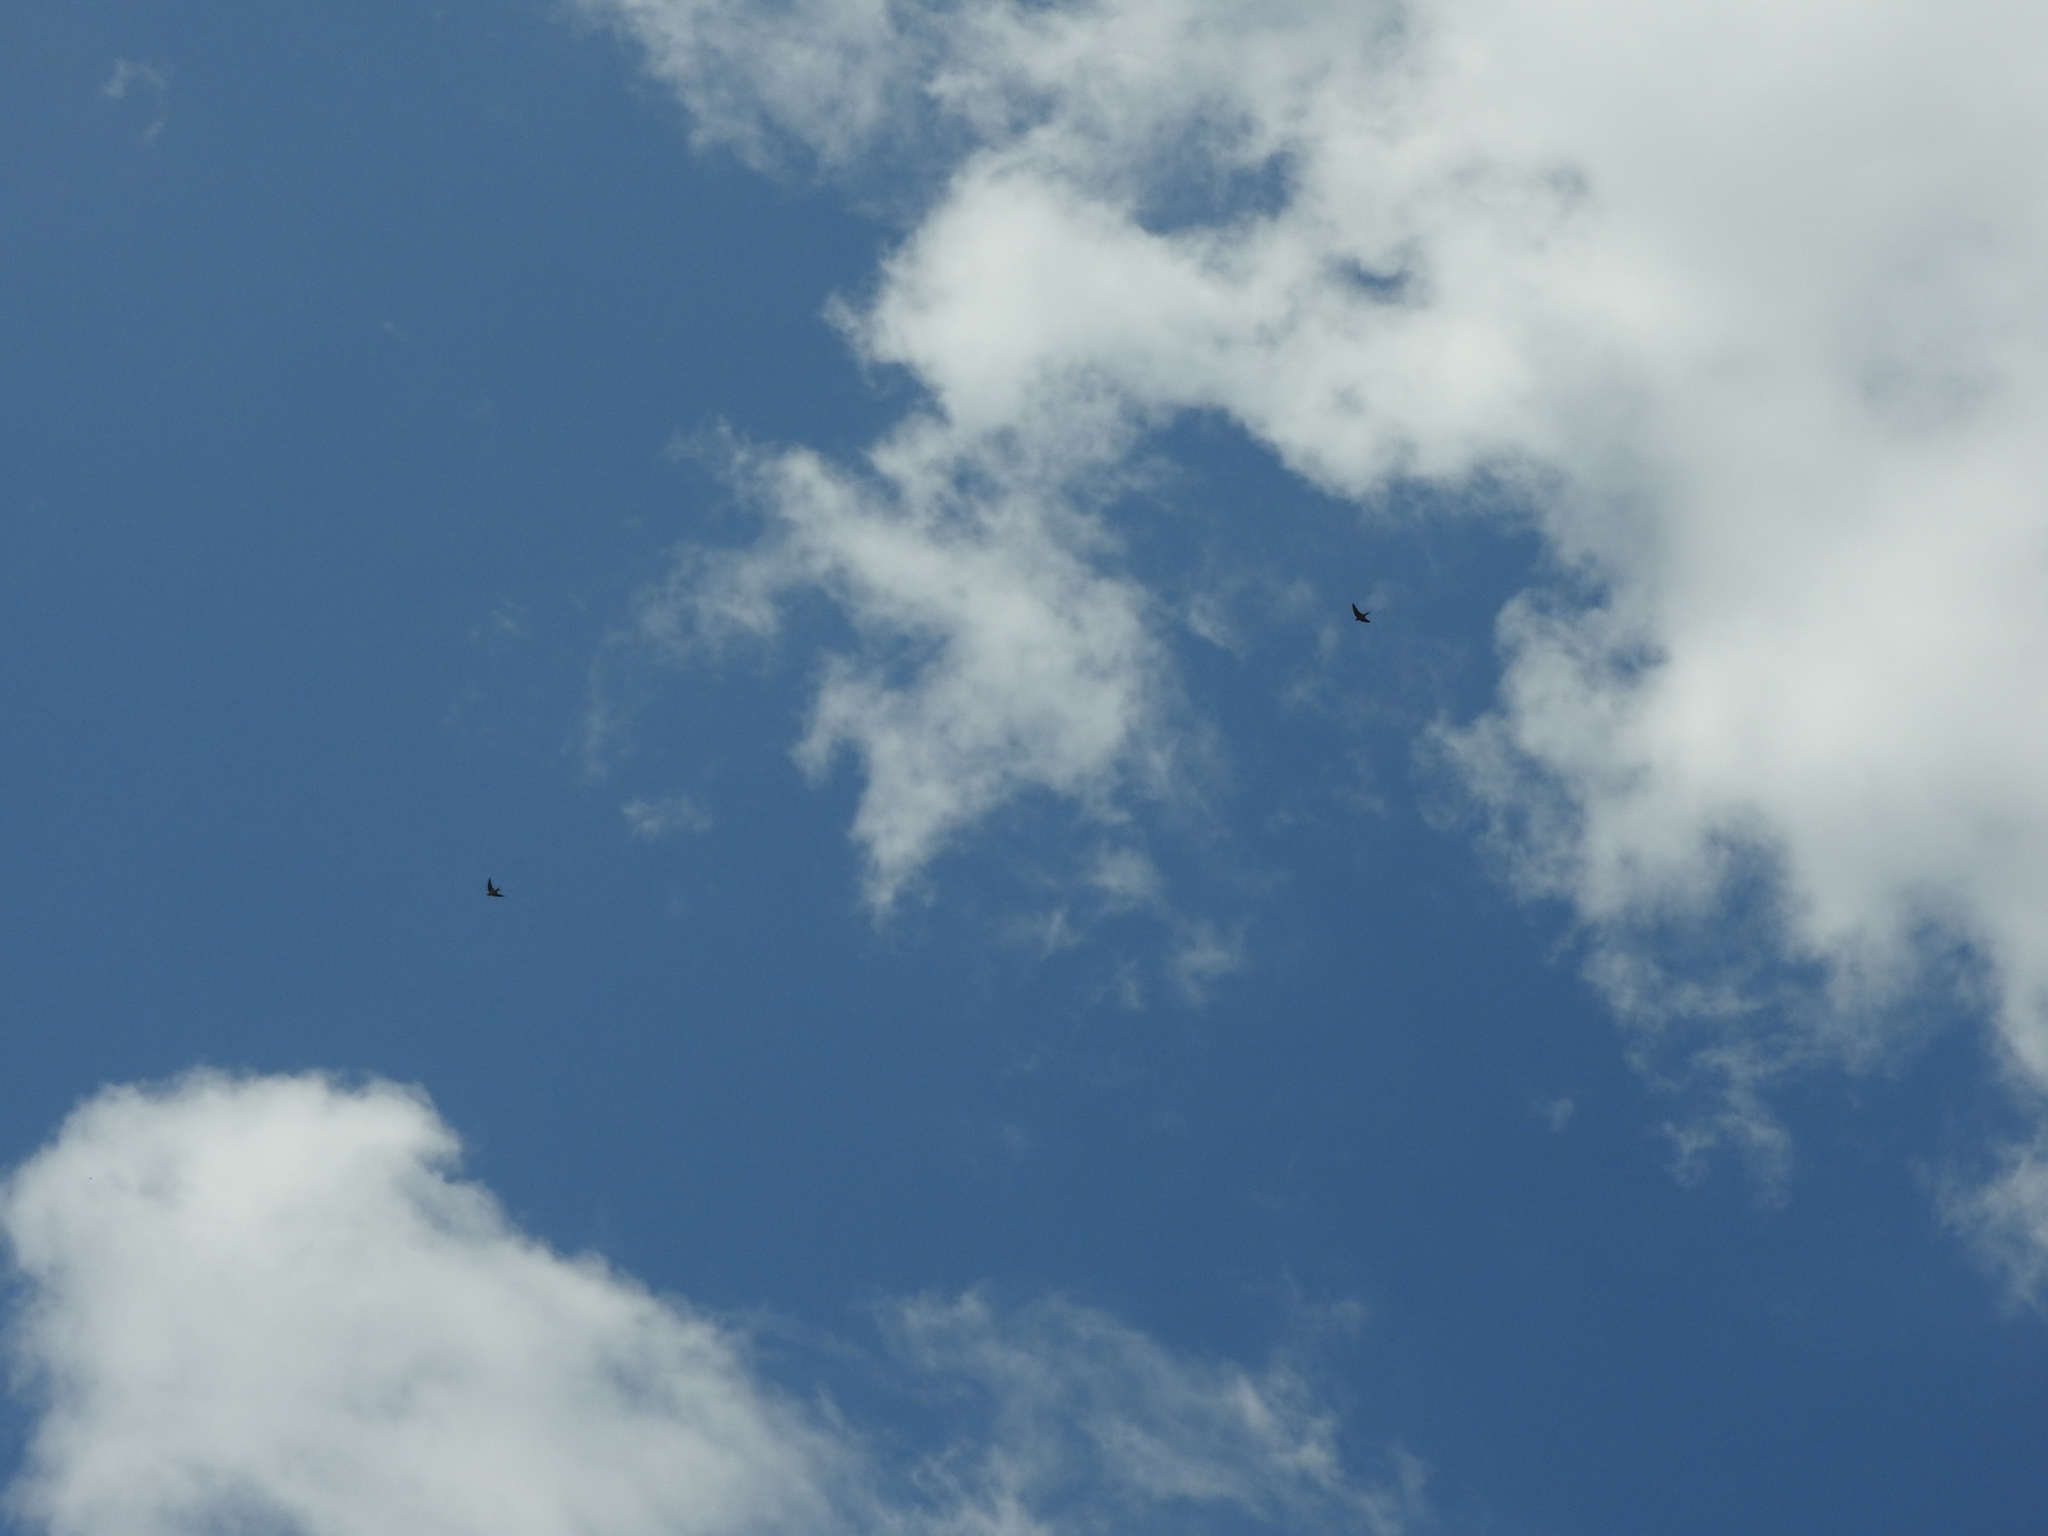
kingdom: Animalia
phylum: Chordata
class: Aves
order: Passeriformes
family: Hirundinidae
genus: Hirundo
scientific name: Hirundo rustica
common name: Barn swallow
